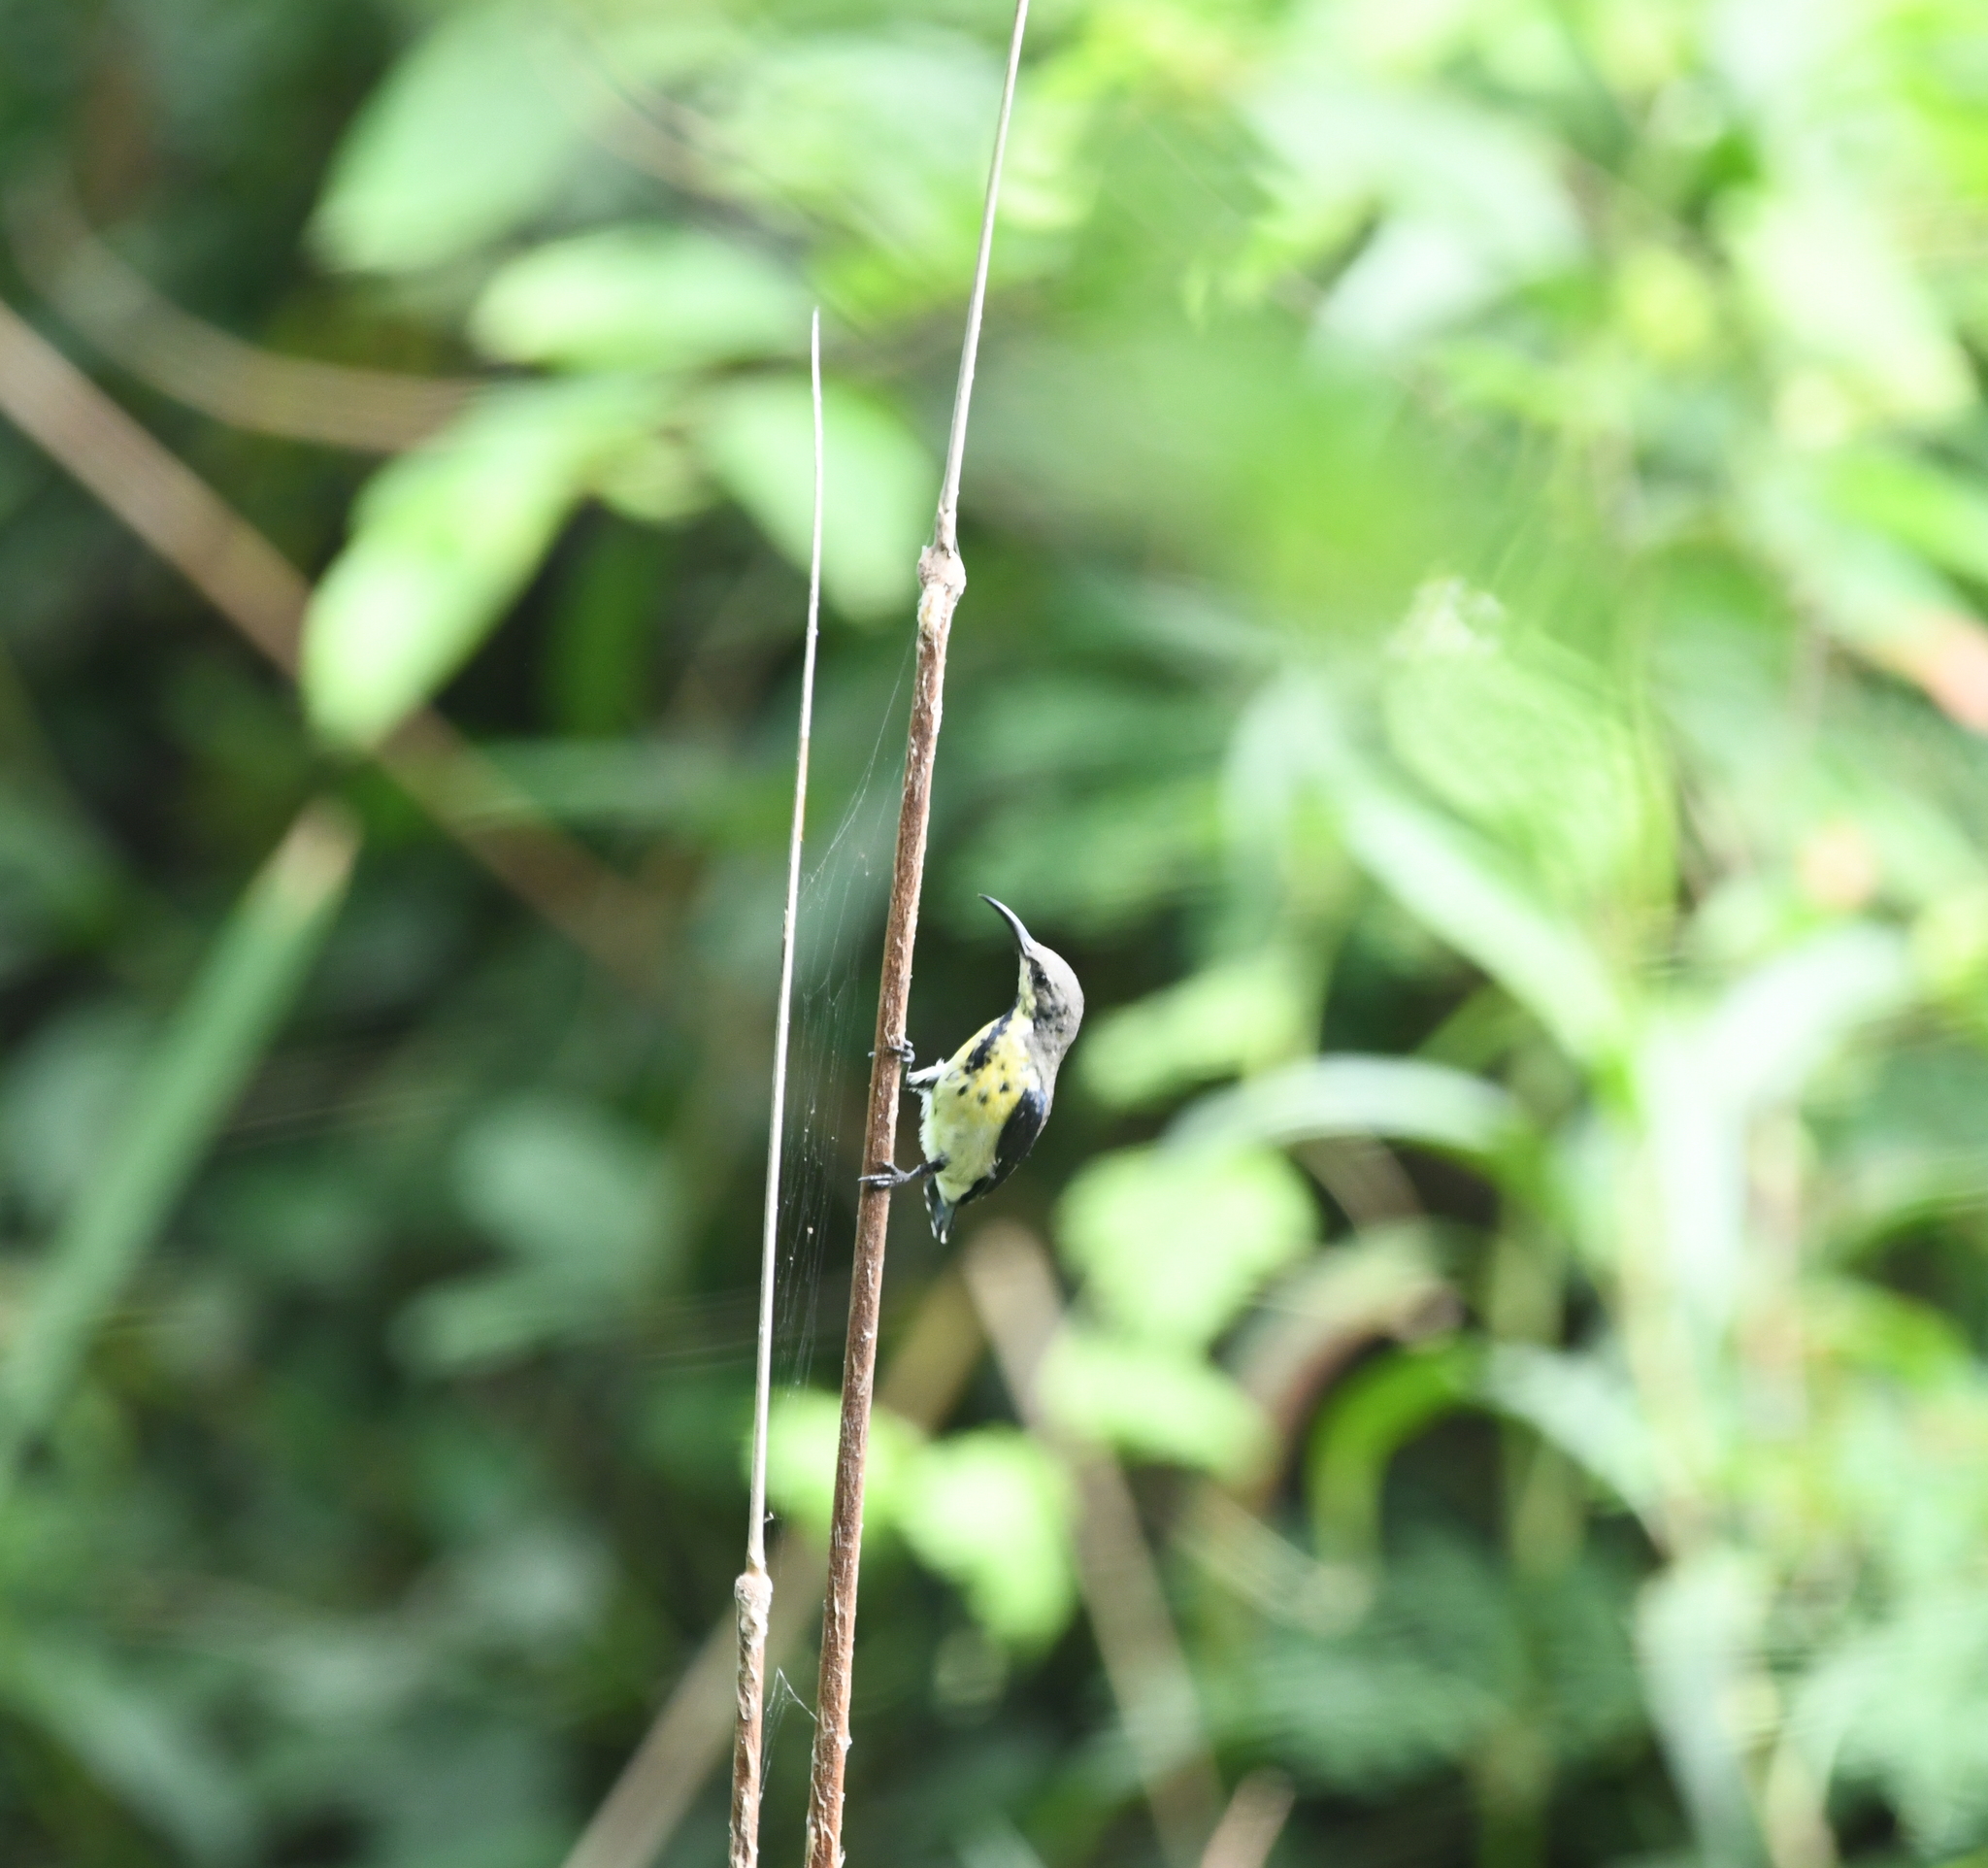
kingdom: Animalia
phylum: Chordata
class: Aves
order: Passeriformes
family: Nectariniidae
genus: Cinnyris
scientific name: Cinnyris asiaticus
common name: Purple sunbird
